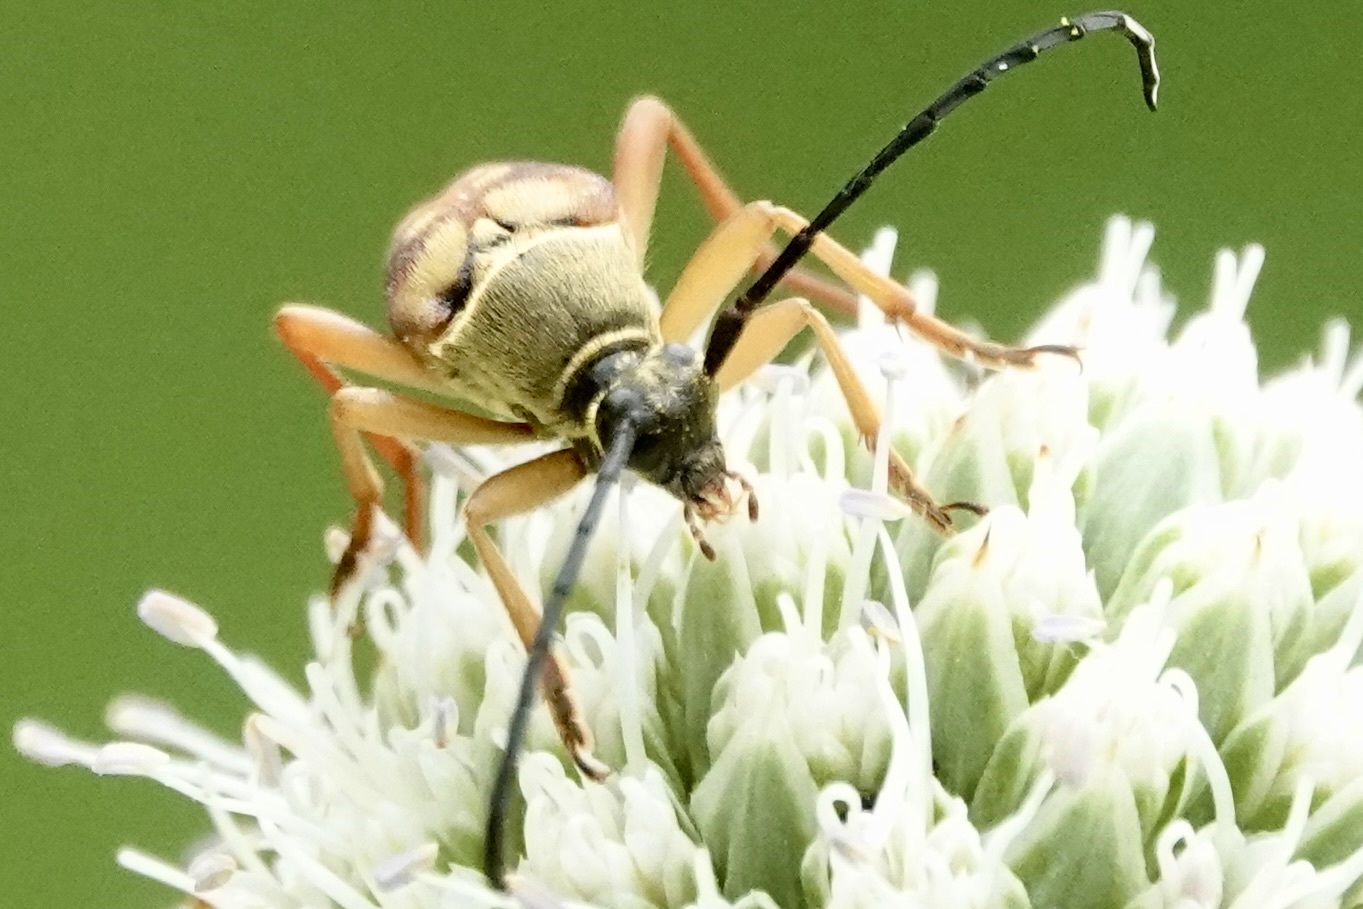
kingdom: Animalia
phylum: Arthropoda
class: Insecta
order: Coleoptera
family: Cerambycidae
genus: Typocerus
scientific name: Typocerus velutinus
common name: Banded longhorn beetle
